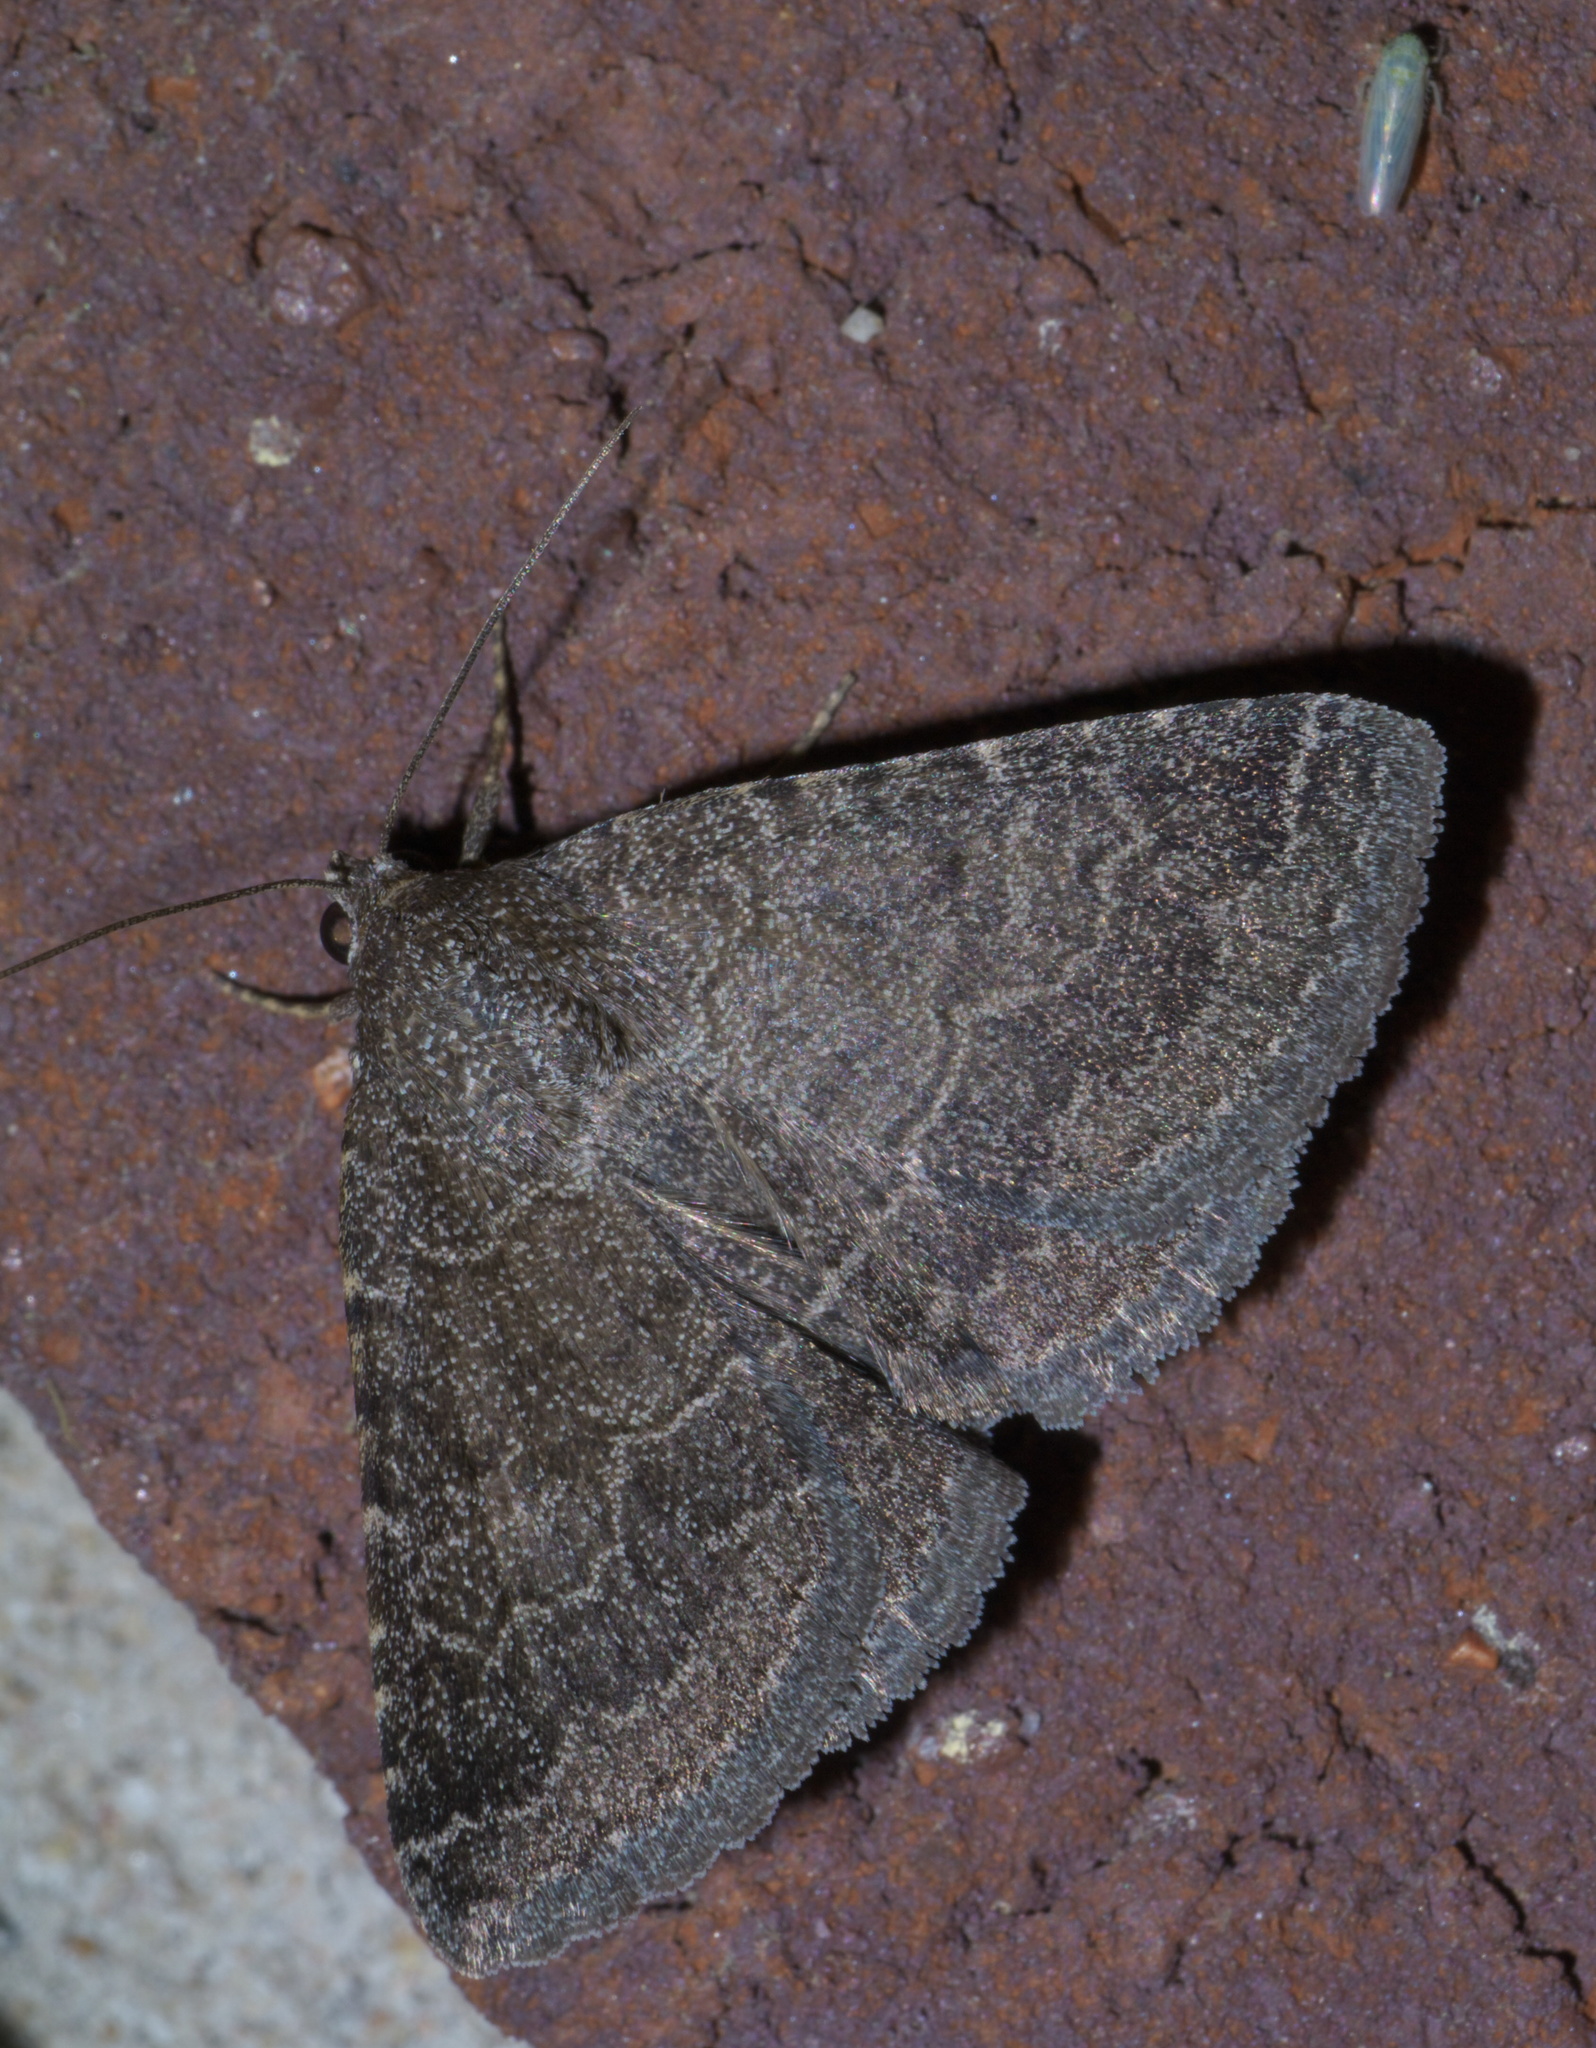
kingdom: Animalia
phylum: Arthropoda
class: Insecta
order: Lepidoptera
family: Erebidae
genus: Matigramma
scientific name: Matigramma pulverilinea
